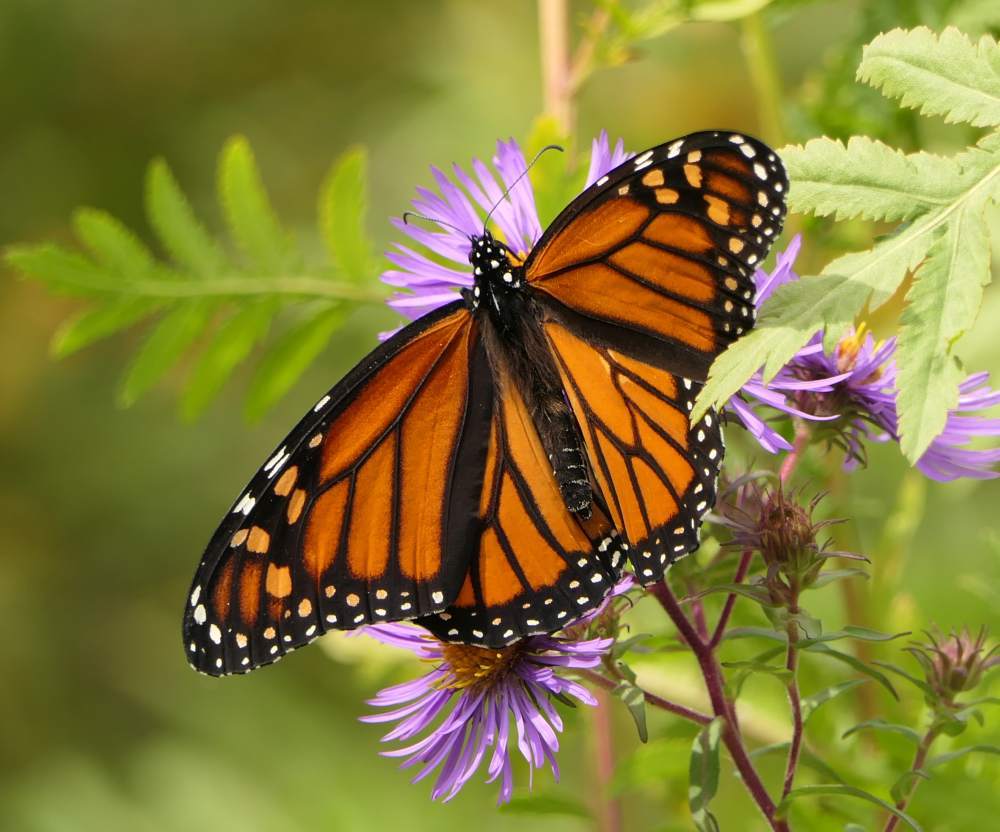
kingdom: Animalia
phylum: Arthropoda
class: Insecta
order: Lepidoptera
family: Nymphalidae
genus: Danaus
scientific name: Danaus plexippus
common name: Monarch
